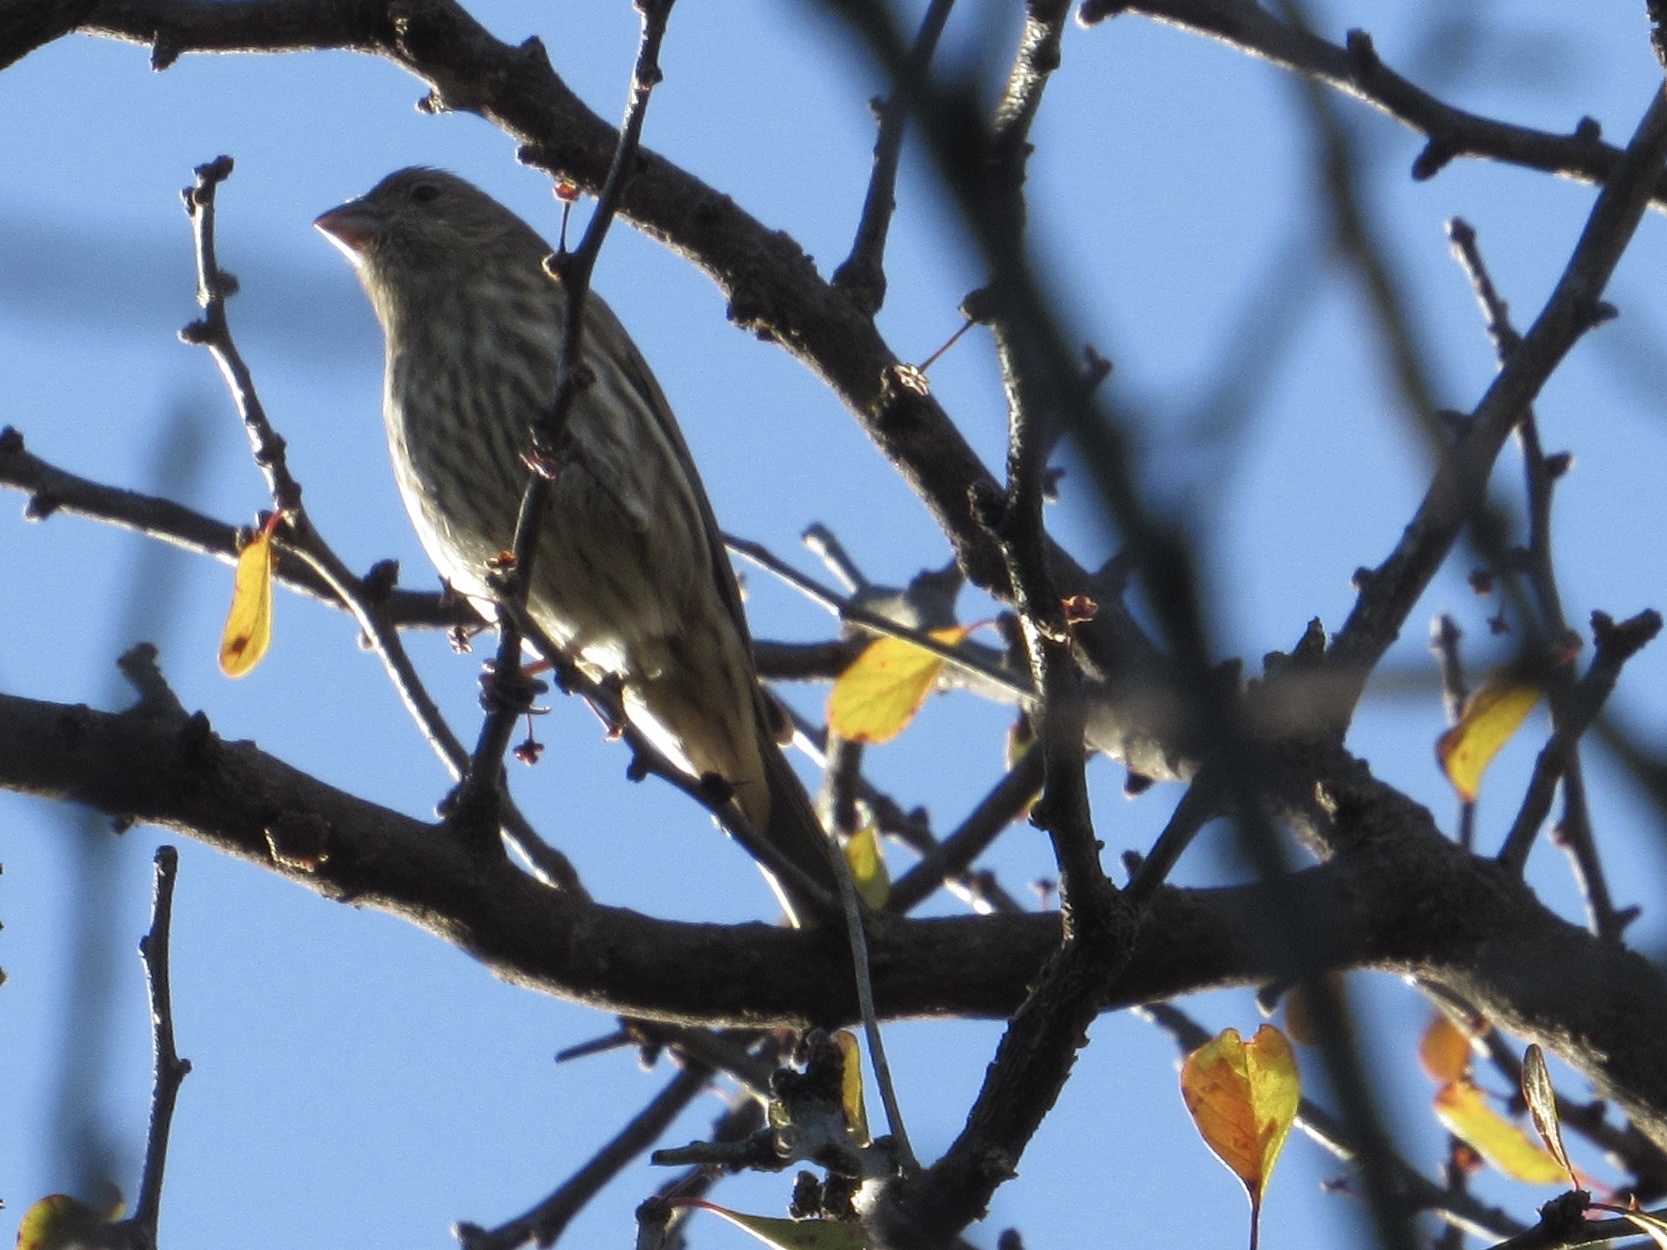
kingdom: Animalia
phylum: Chordata
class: Aves
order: Passeriformes
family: Fringillidae
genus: Haemorhous
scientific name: Haemorhous mexicanus
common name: House finch
